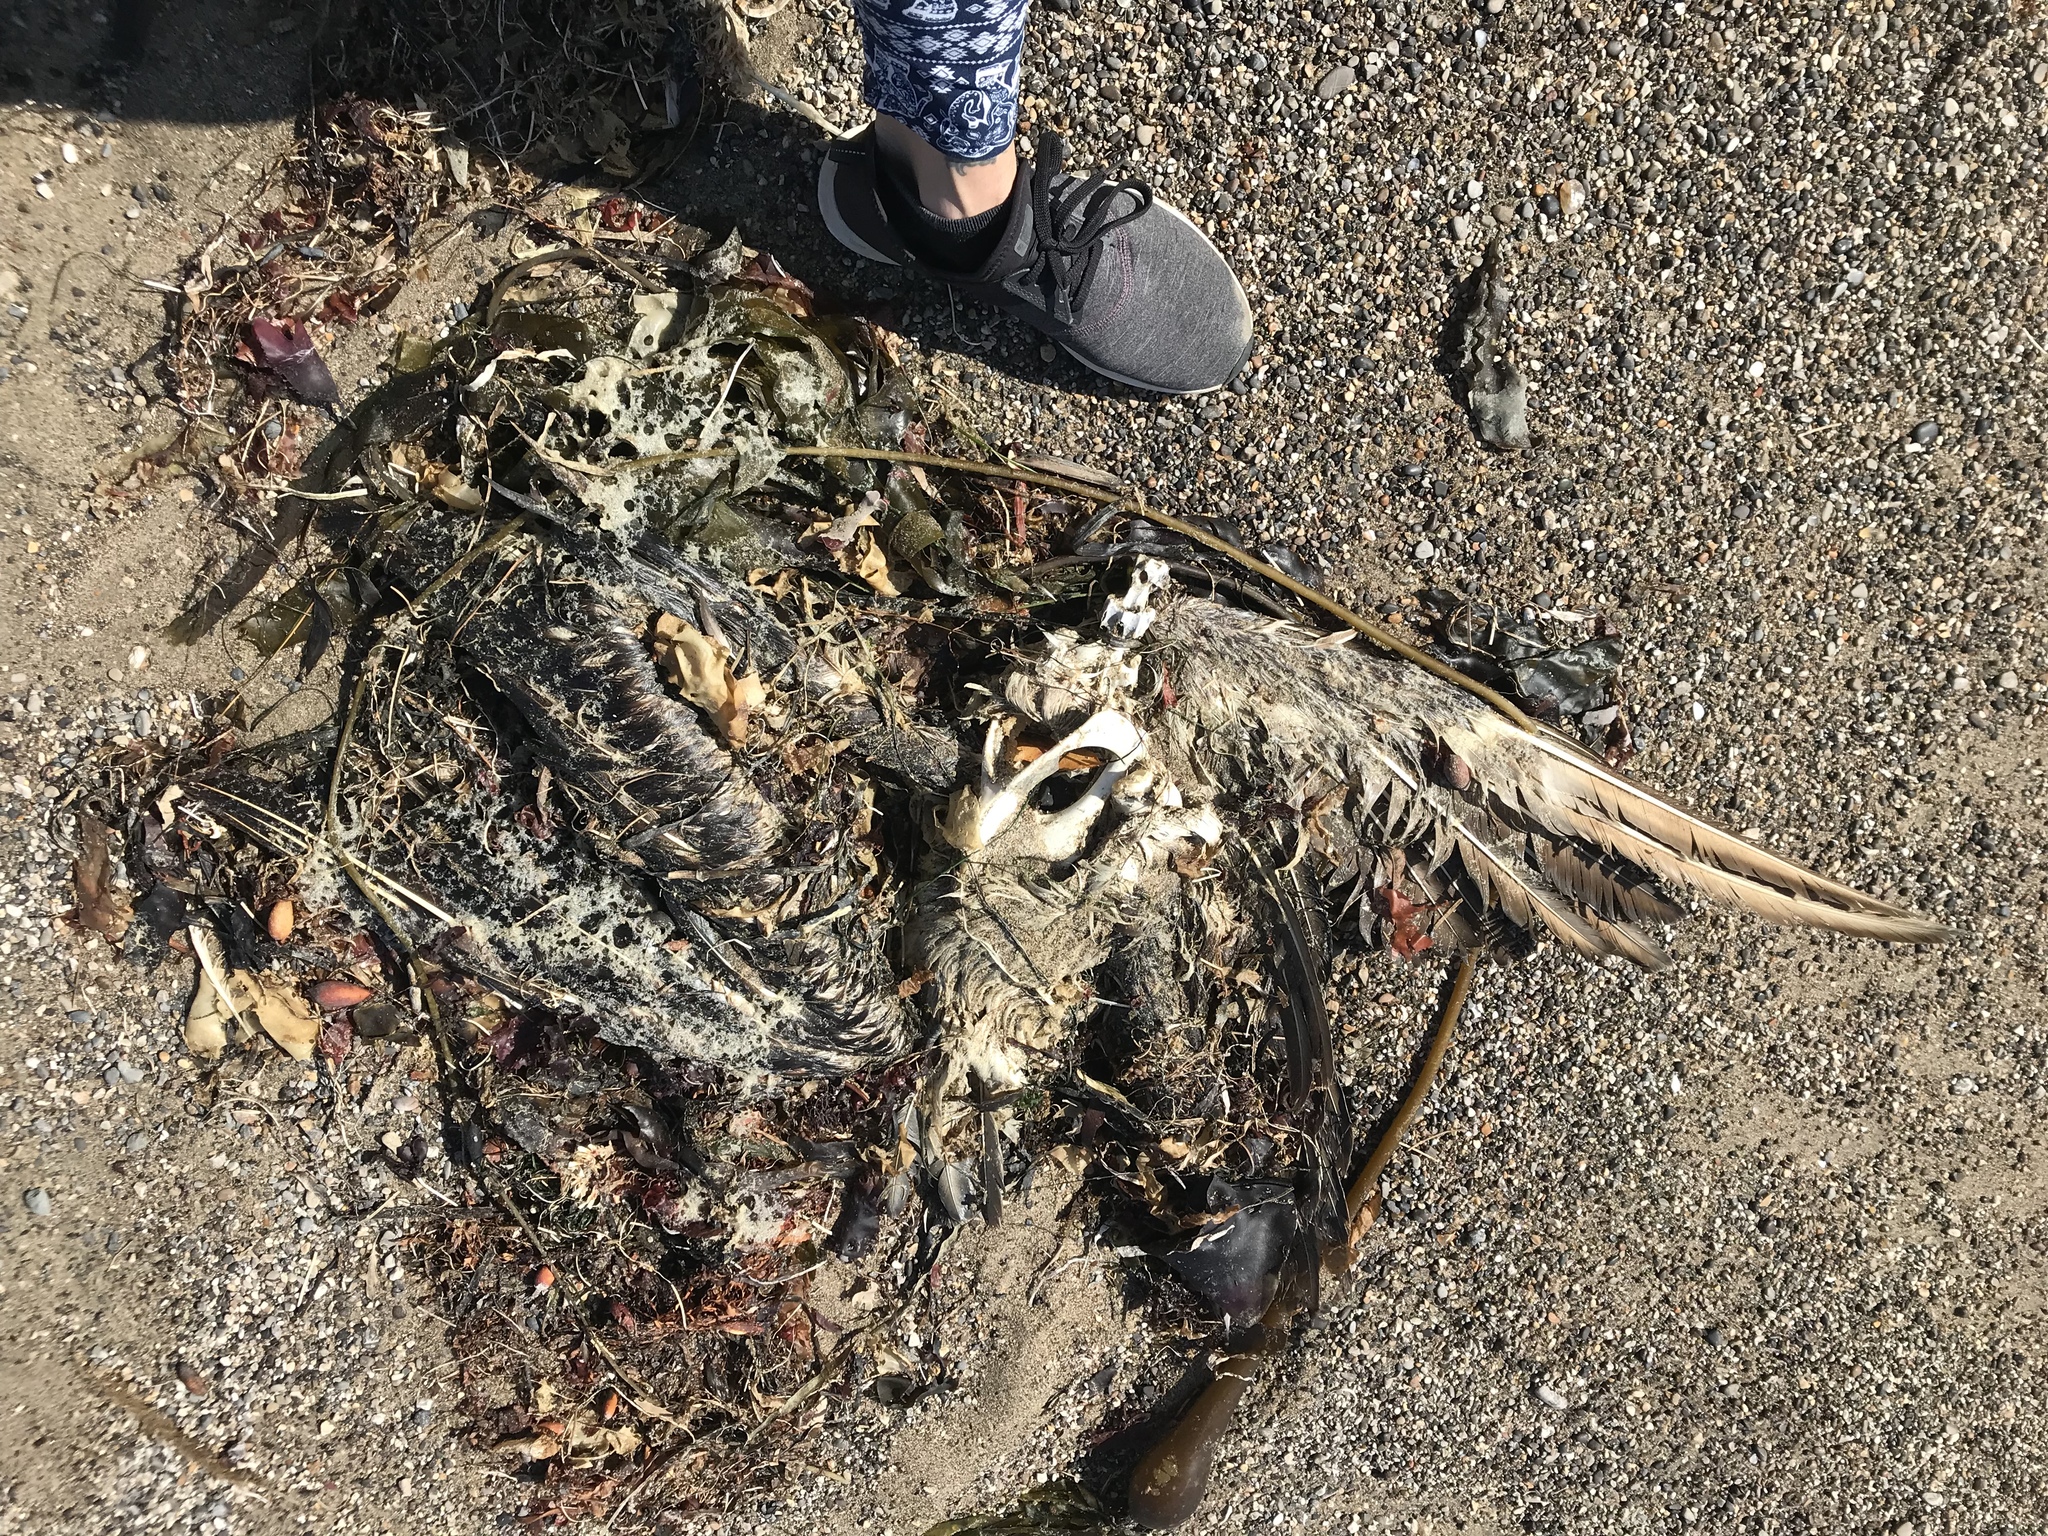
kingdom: Animalia
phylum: Chordata
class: Aves
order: Pelecaniformes
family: Pelecanidae
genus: Pelecanus
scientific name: Pelecanus occidentalis
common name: Brown pelican
